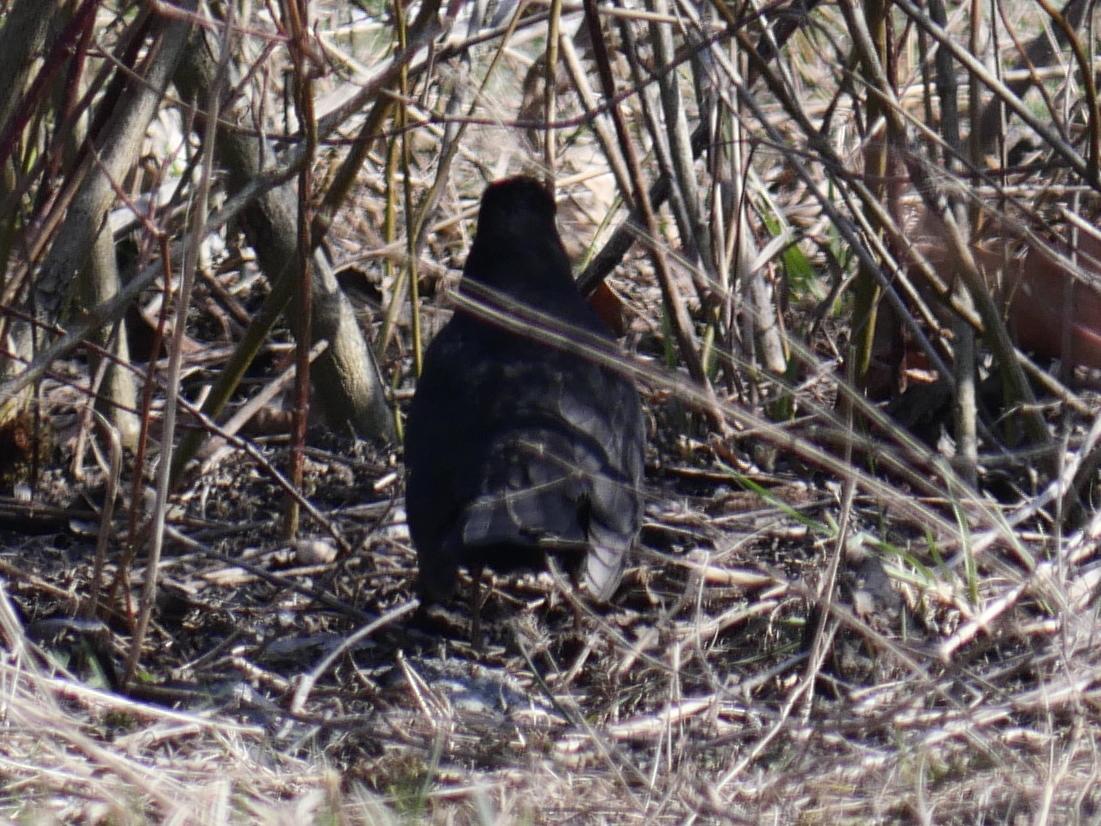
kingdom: Animalia
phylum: Chordata
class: Aves
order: Passeriformes
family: Turdidae
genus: Turdus
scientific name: Turdus merula
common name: Common blackbird
